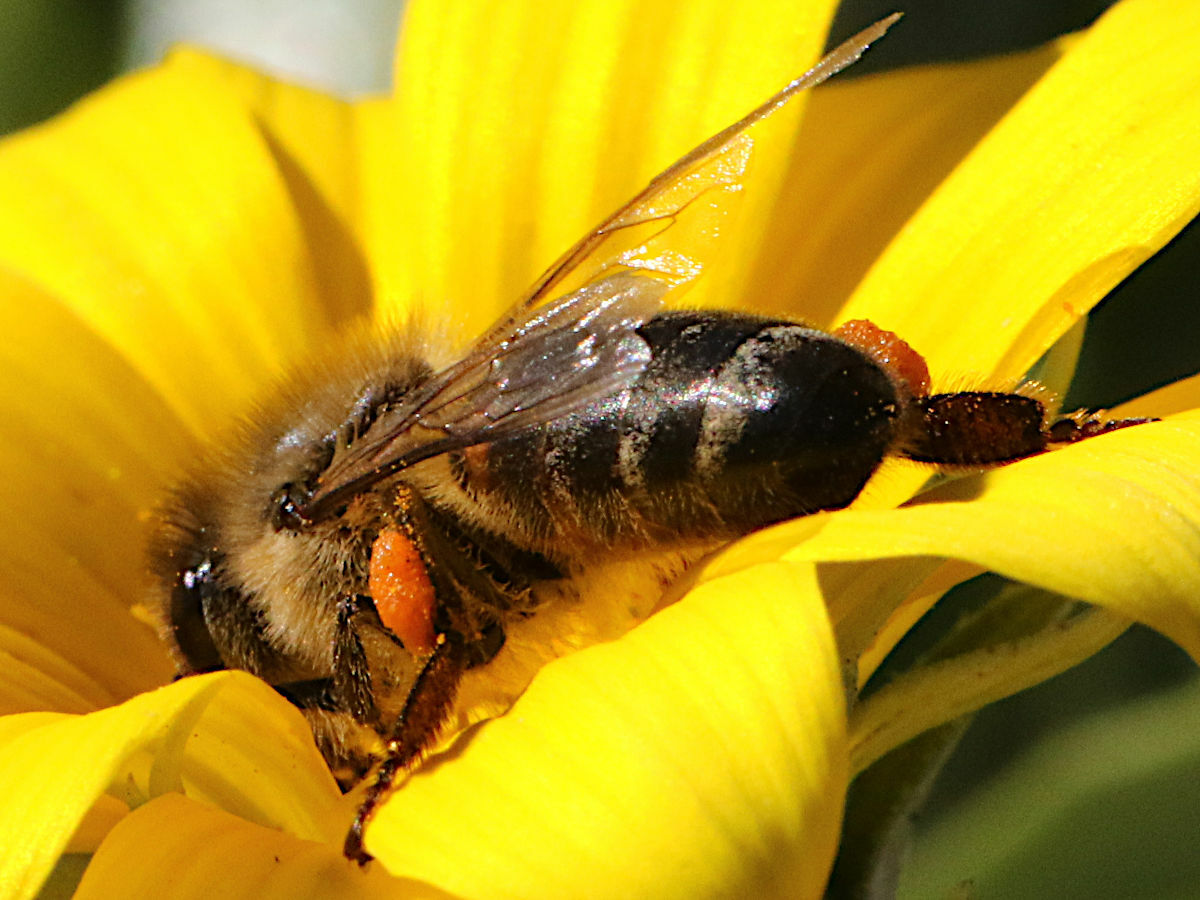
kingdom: Animalia
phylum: Arthropoda
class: Insecta
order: Hymenoptera
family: Apidae
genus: Apis
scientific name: Apis mellifera
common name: Honey bee
